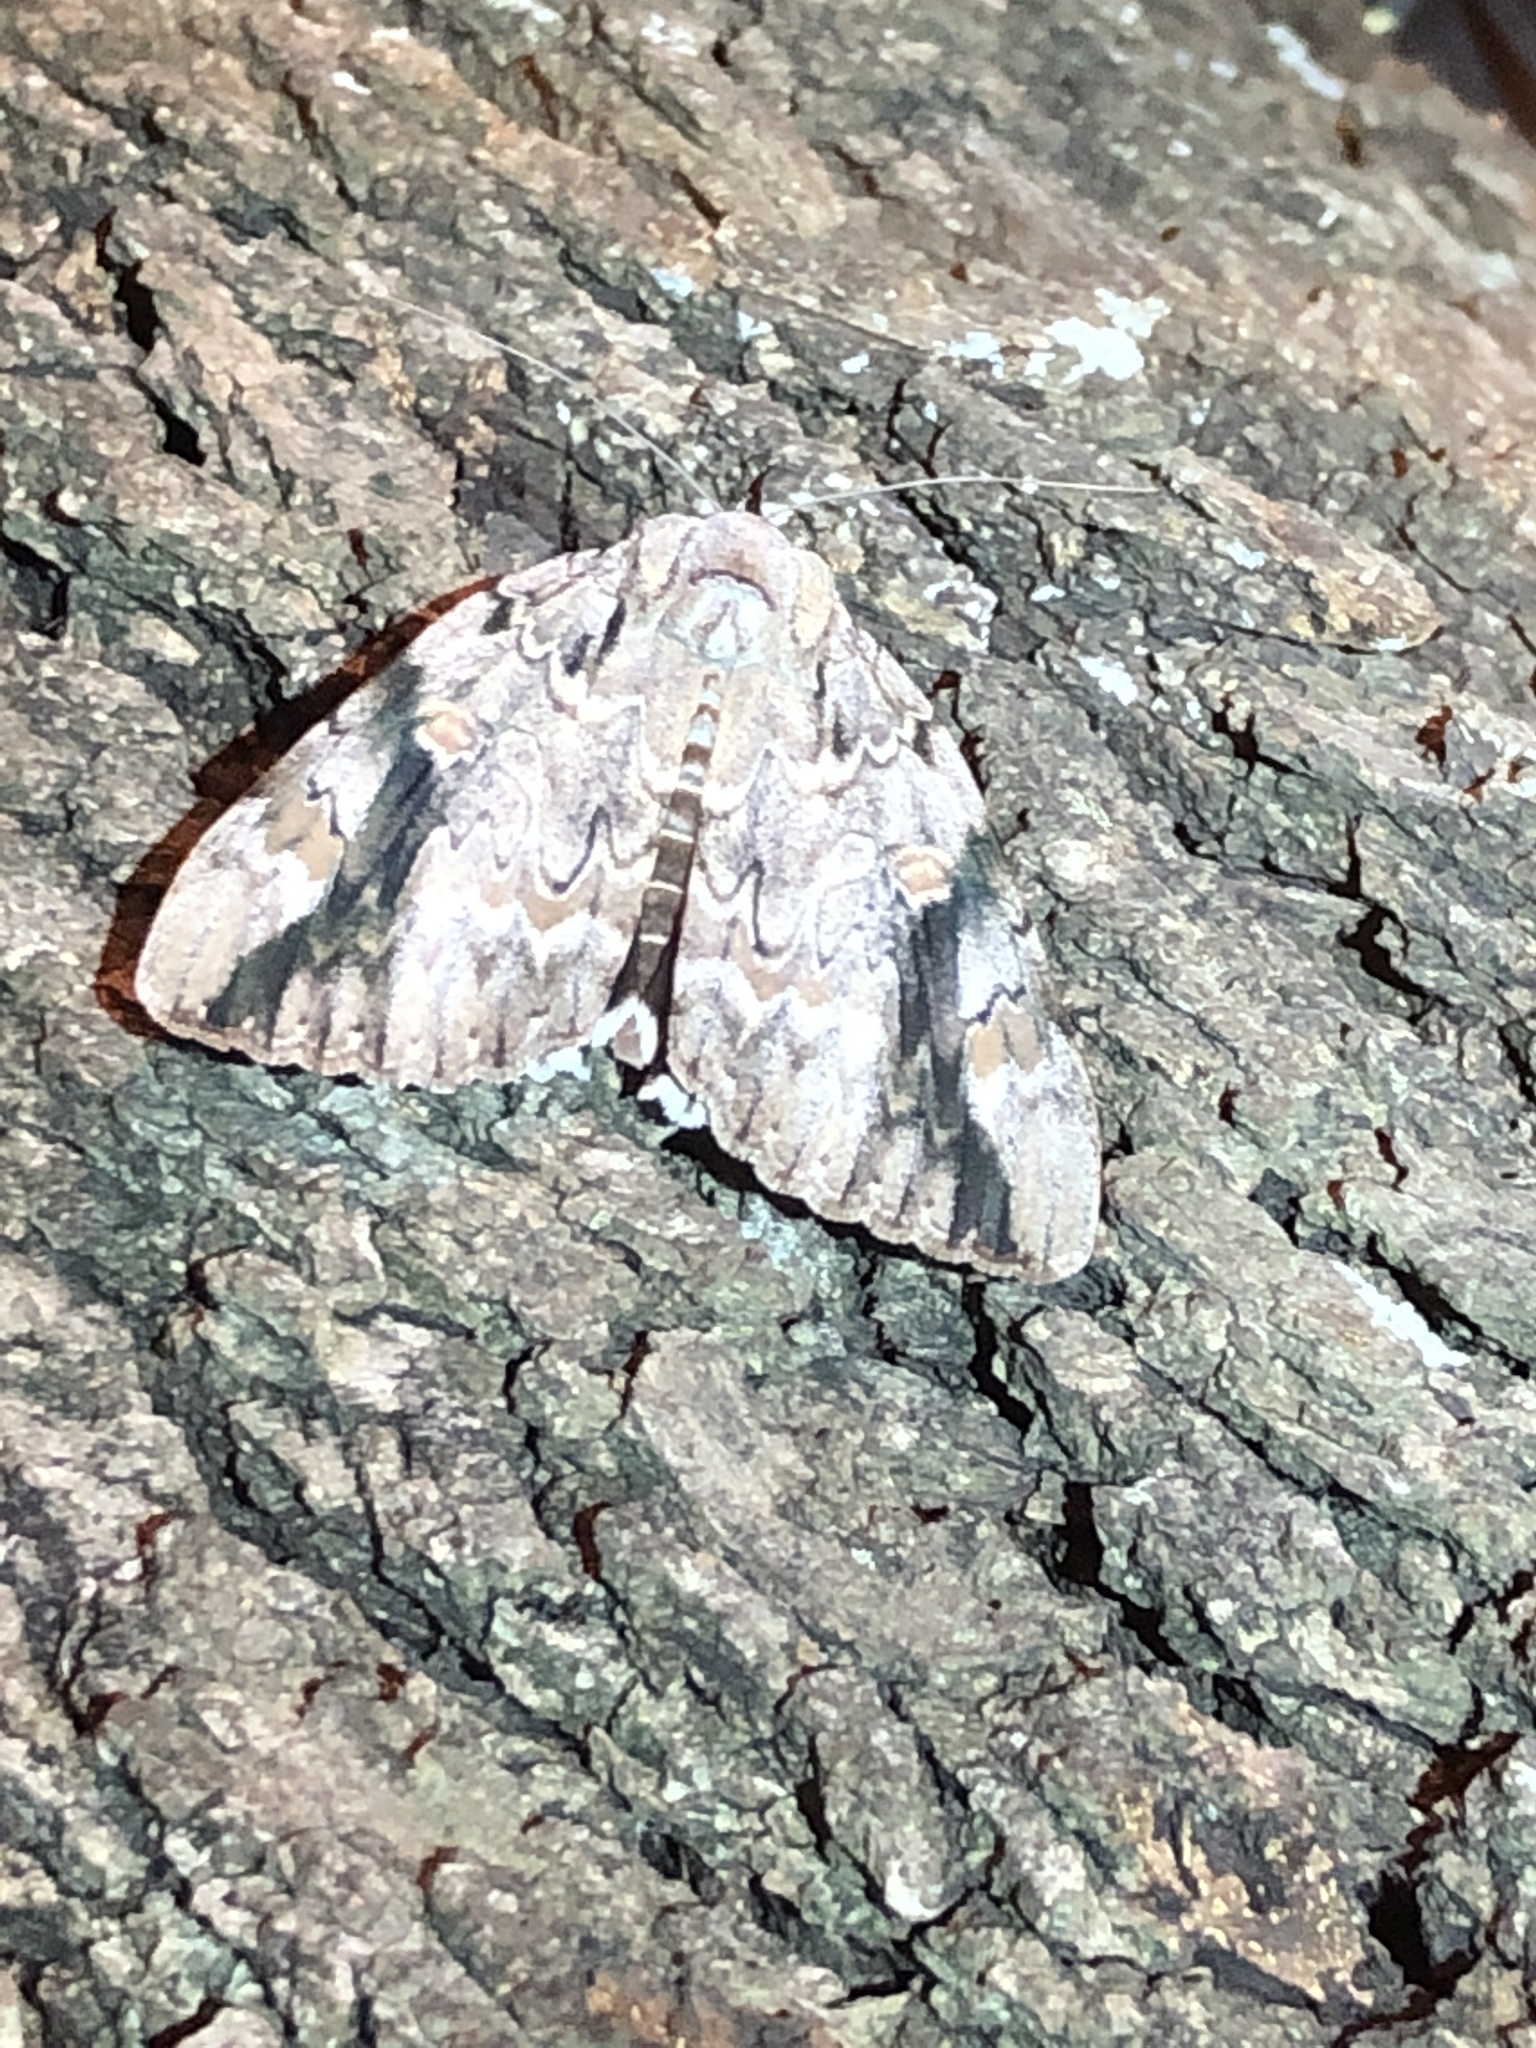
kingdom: Animalia
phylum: Arthropoda
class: Insecta
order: Lepidoptera
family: Erebidae
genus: Catocala
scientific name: Catocala maestosa
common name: Sad underwing
